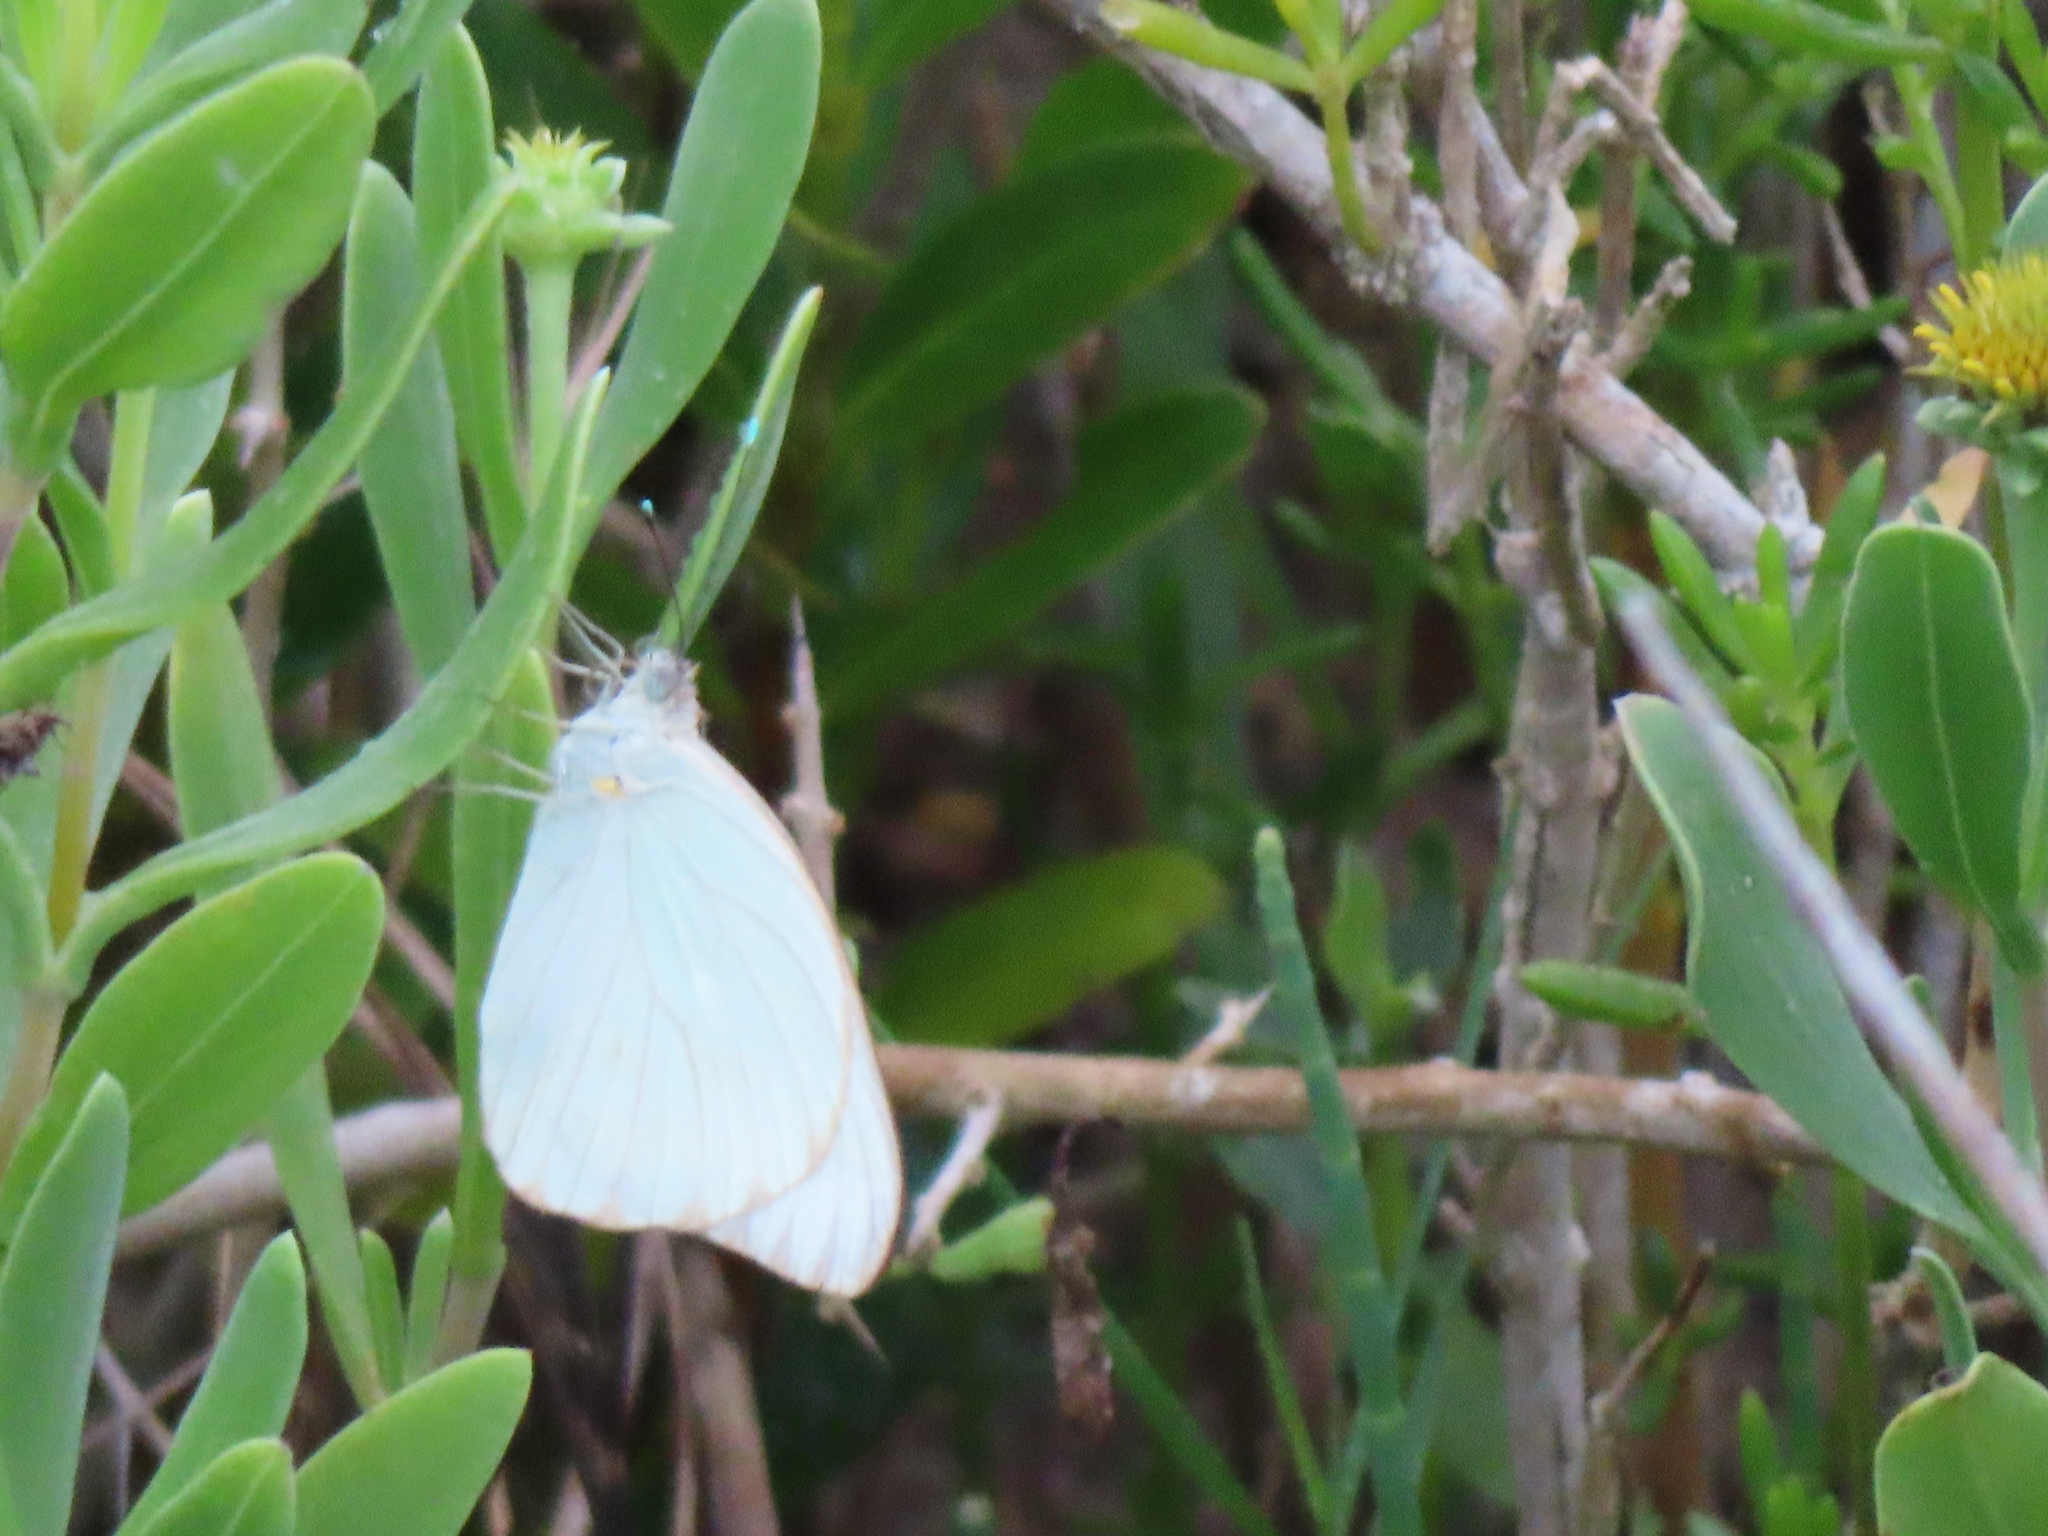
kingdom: Animalia
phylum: Arthropoda
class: Insecta
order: Lepidoptera
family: Pieridae
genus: Ascia
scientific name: Ascia monuste
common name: Great southern white
